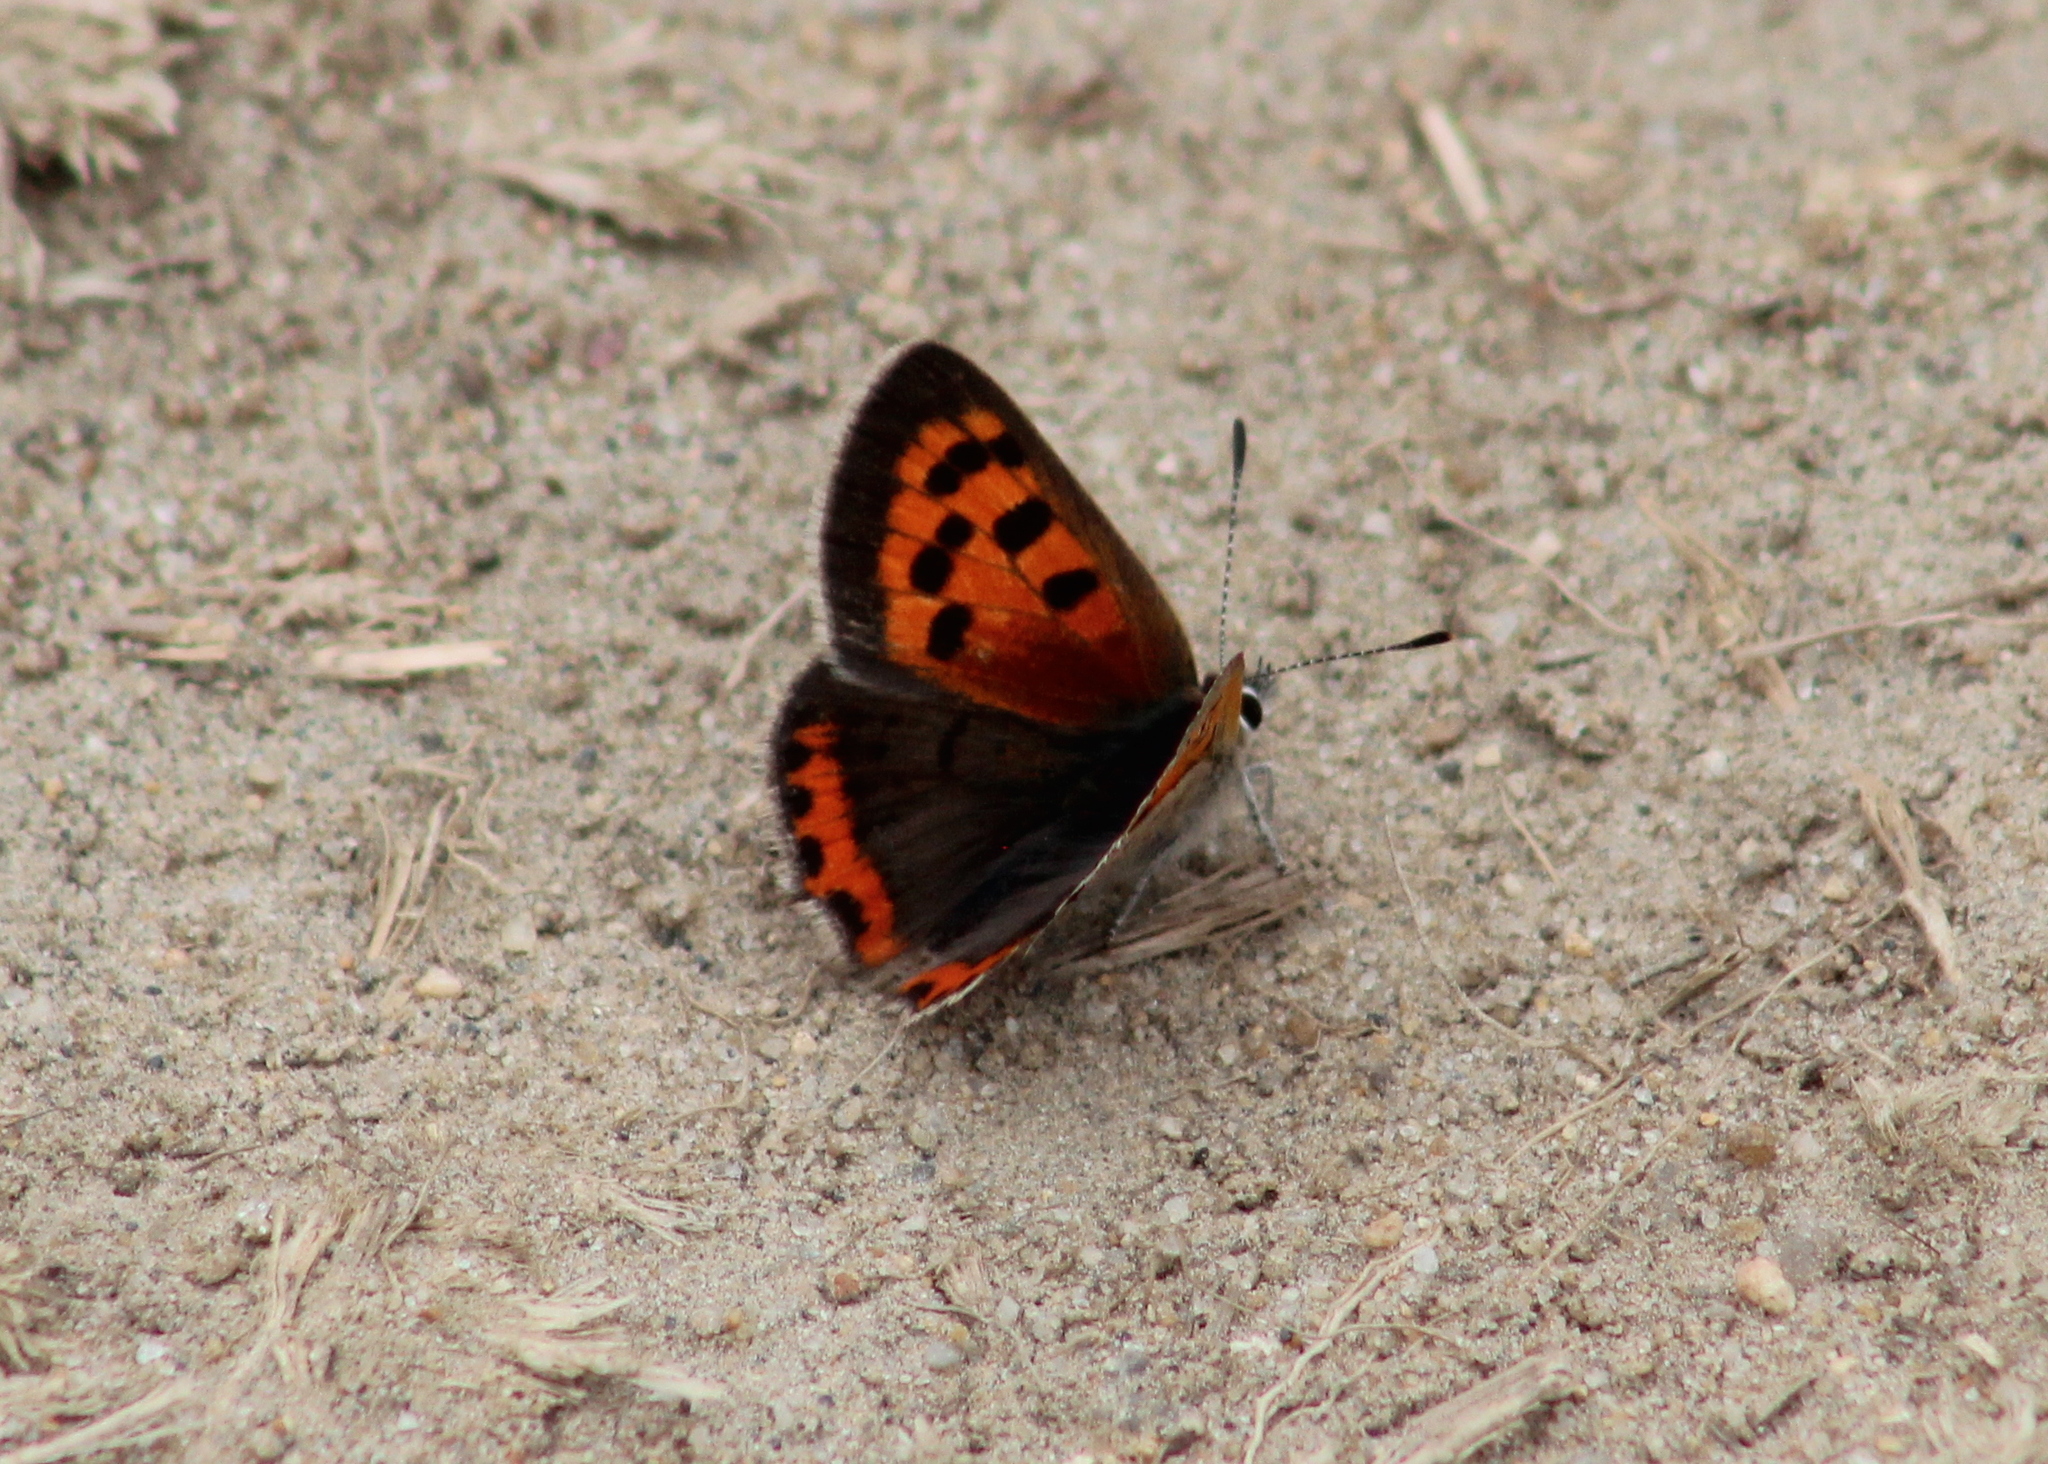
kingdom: Animalia
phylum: Arthropoda
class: Insecta
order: Lepidoptera
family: Lycaenidae
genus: Lycaena
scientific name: Lycaena hypophlaeas
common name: American copper
